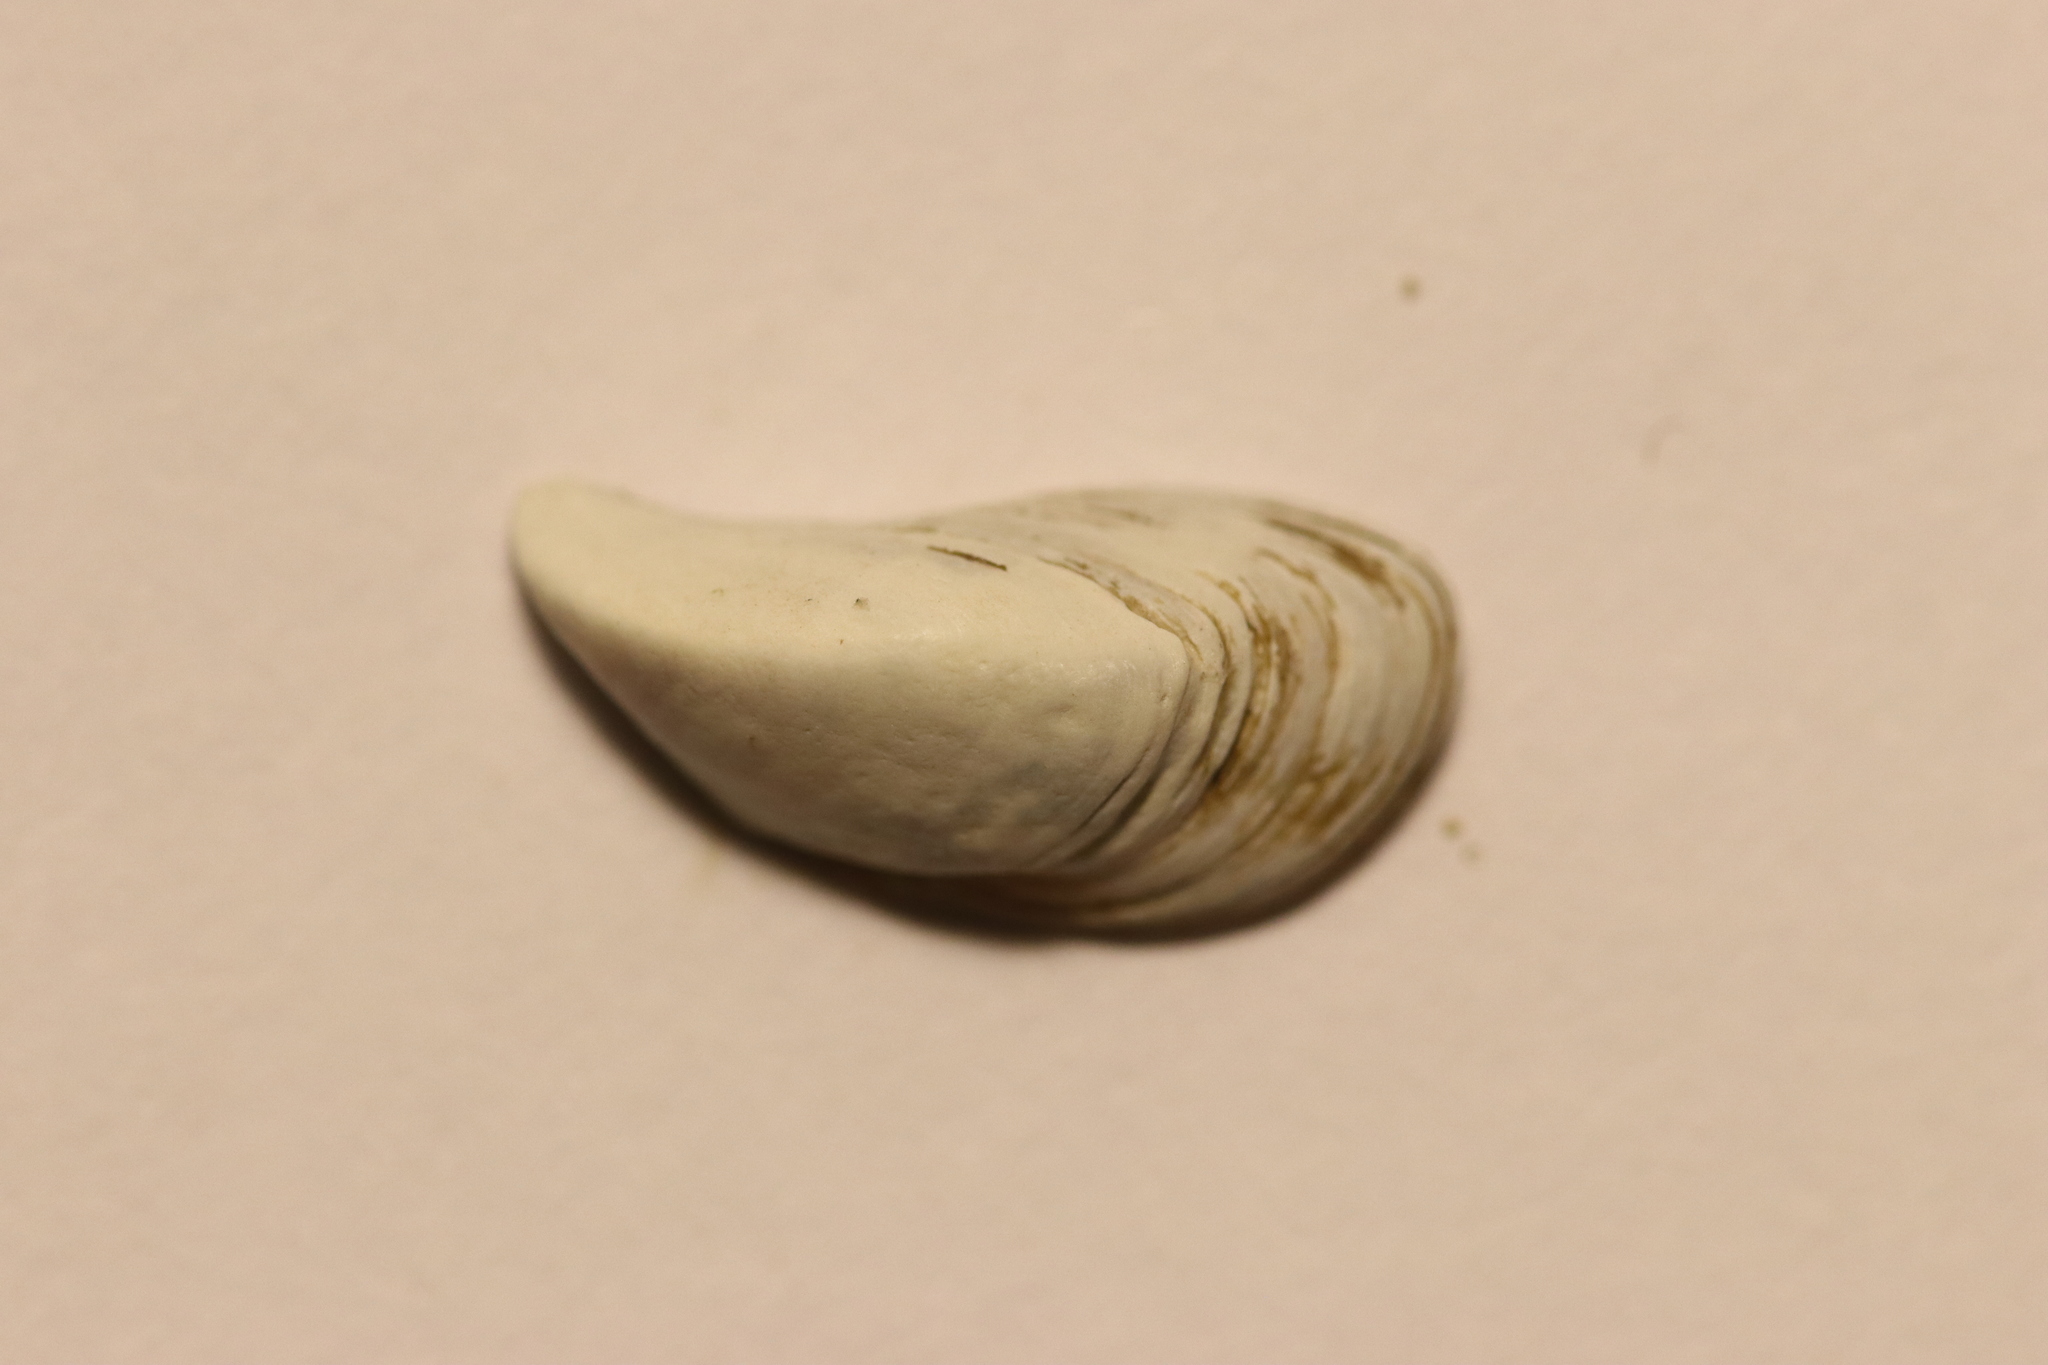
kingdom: Animalia
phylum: Mollusca
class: Bivalvia
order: Myida
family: Dreissenidae
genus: Dreissena
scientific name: Dreissena polymorpha
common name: Zebra mussel
